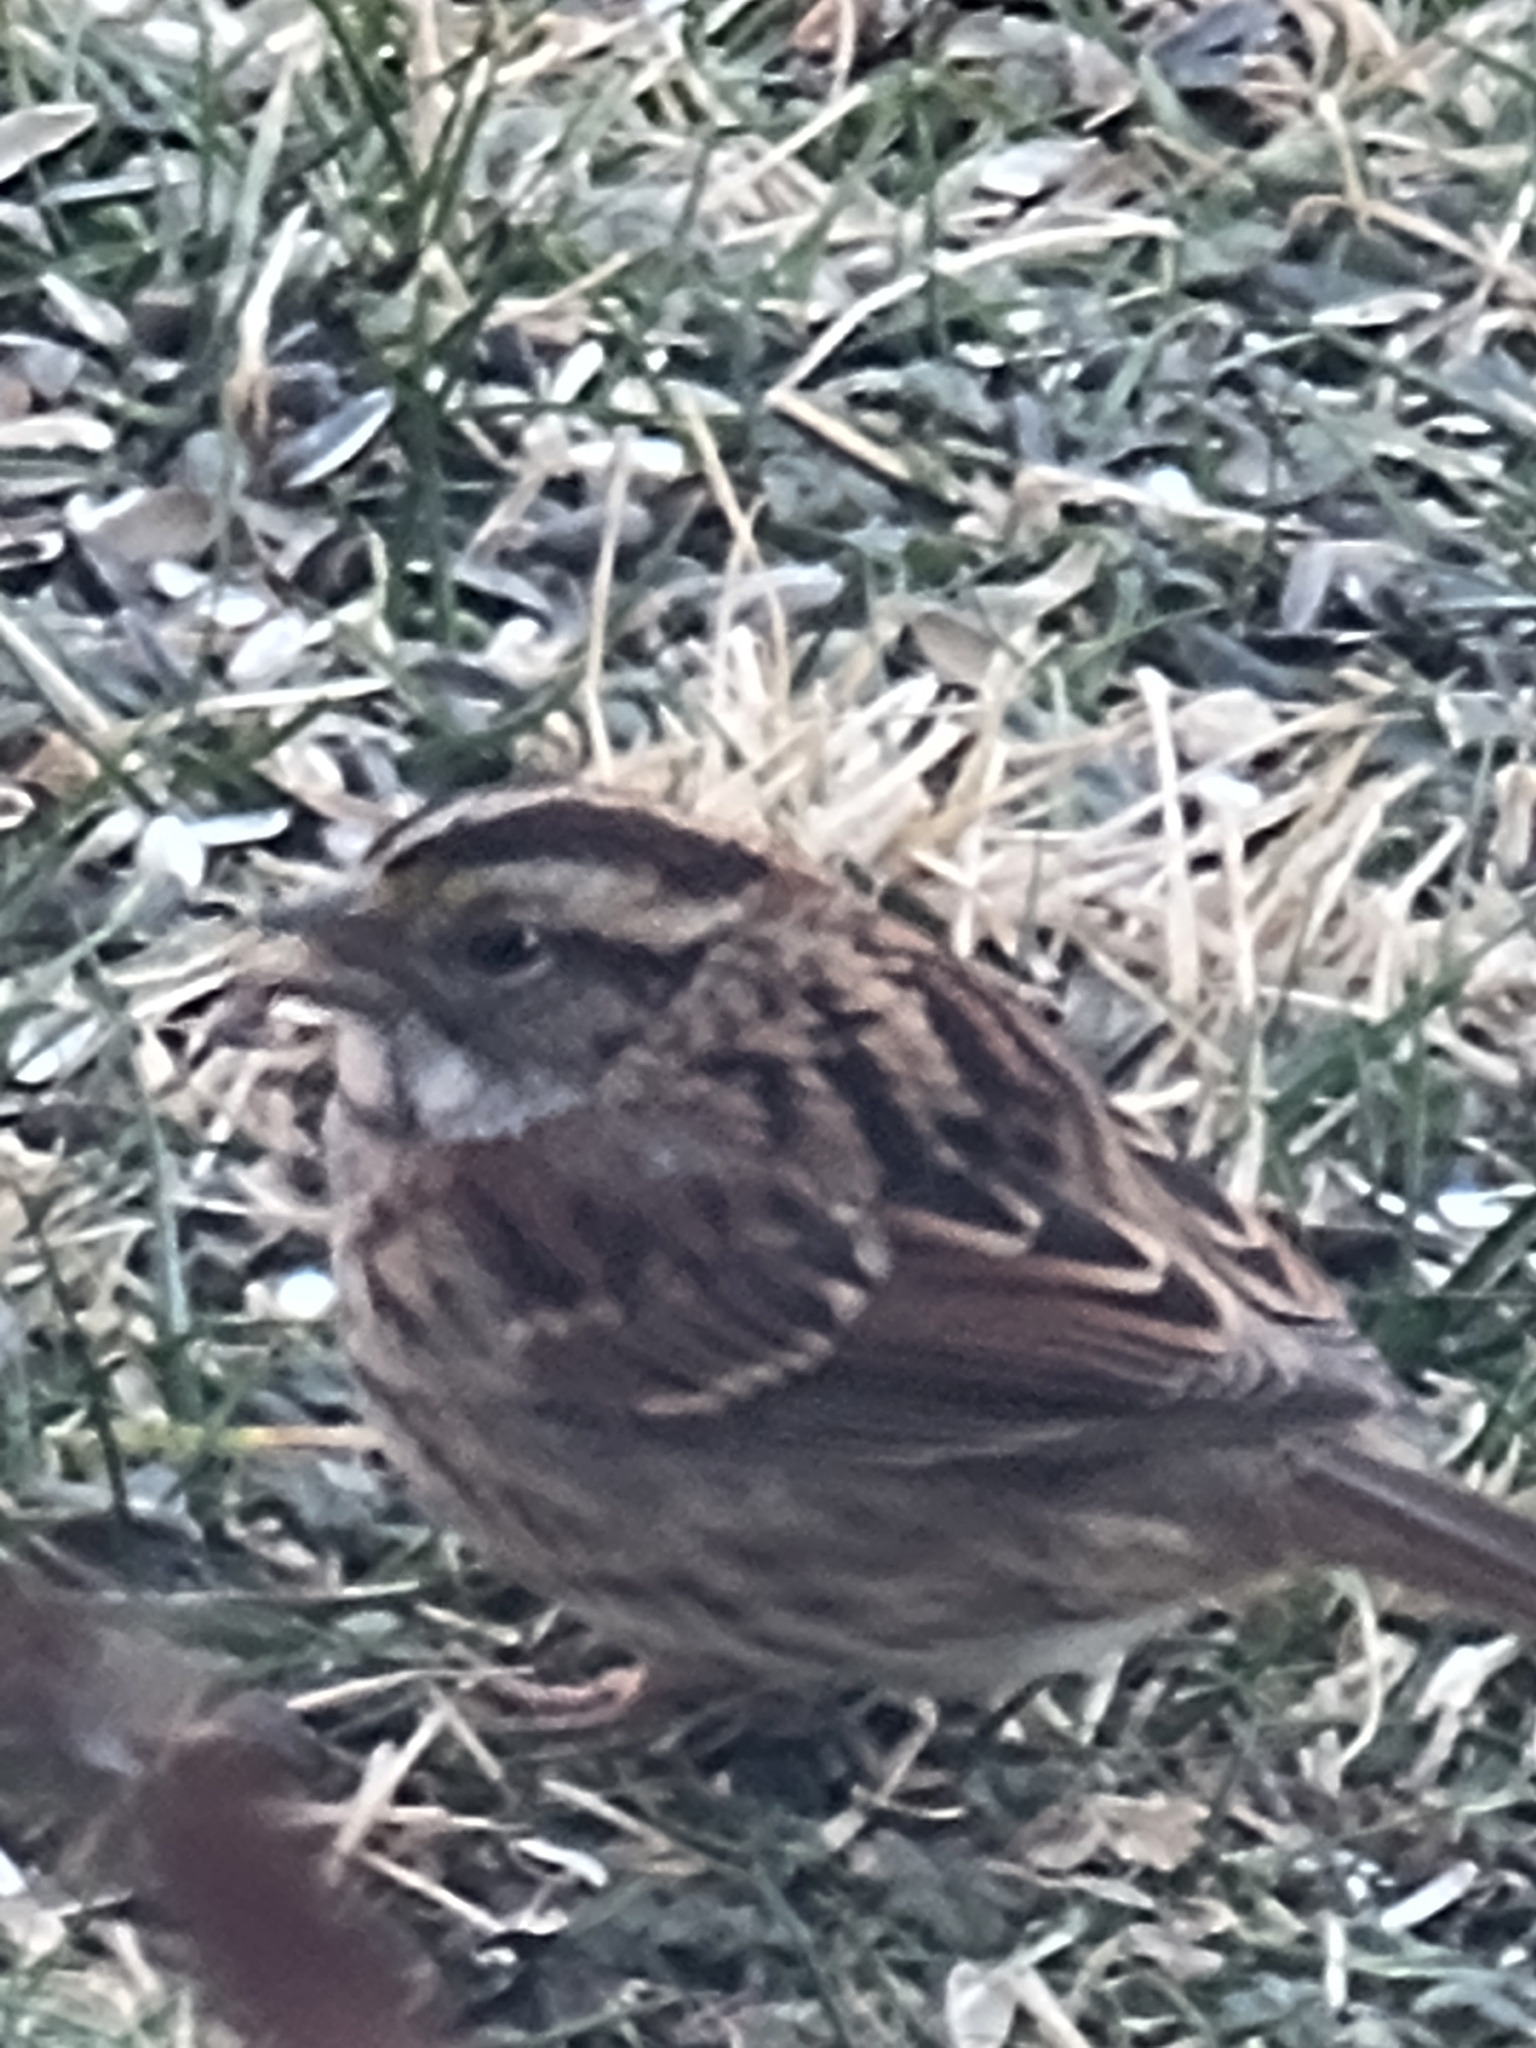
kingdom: Animalia
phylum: Chordata
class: Aves
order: Passeriformes
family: Passerellidae
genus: Zonotrichia
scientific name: Zonotrichia albicollis
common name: White-throated sparrow
